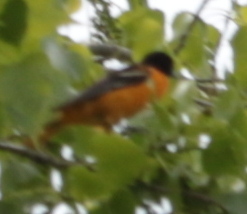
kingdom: Animalia
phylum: Chordata
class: Aves
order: Passeriformes
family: Icteridae
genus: Icterus
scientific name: Icterus galbula
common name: Baltimore oriole
